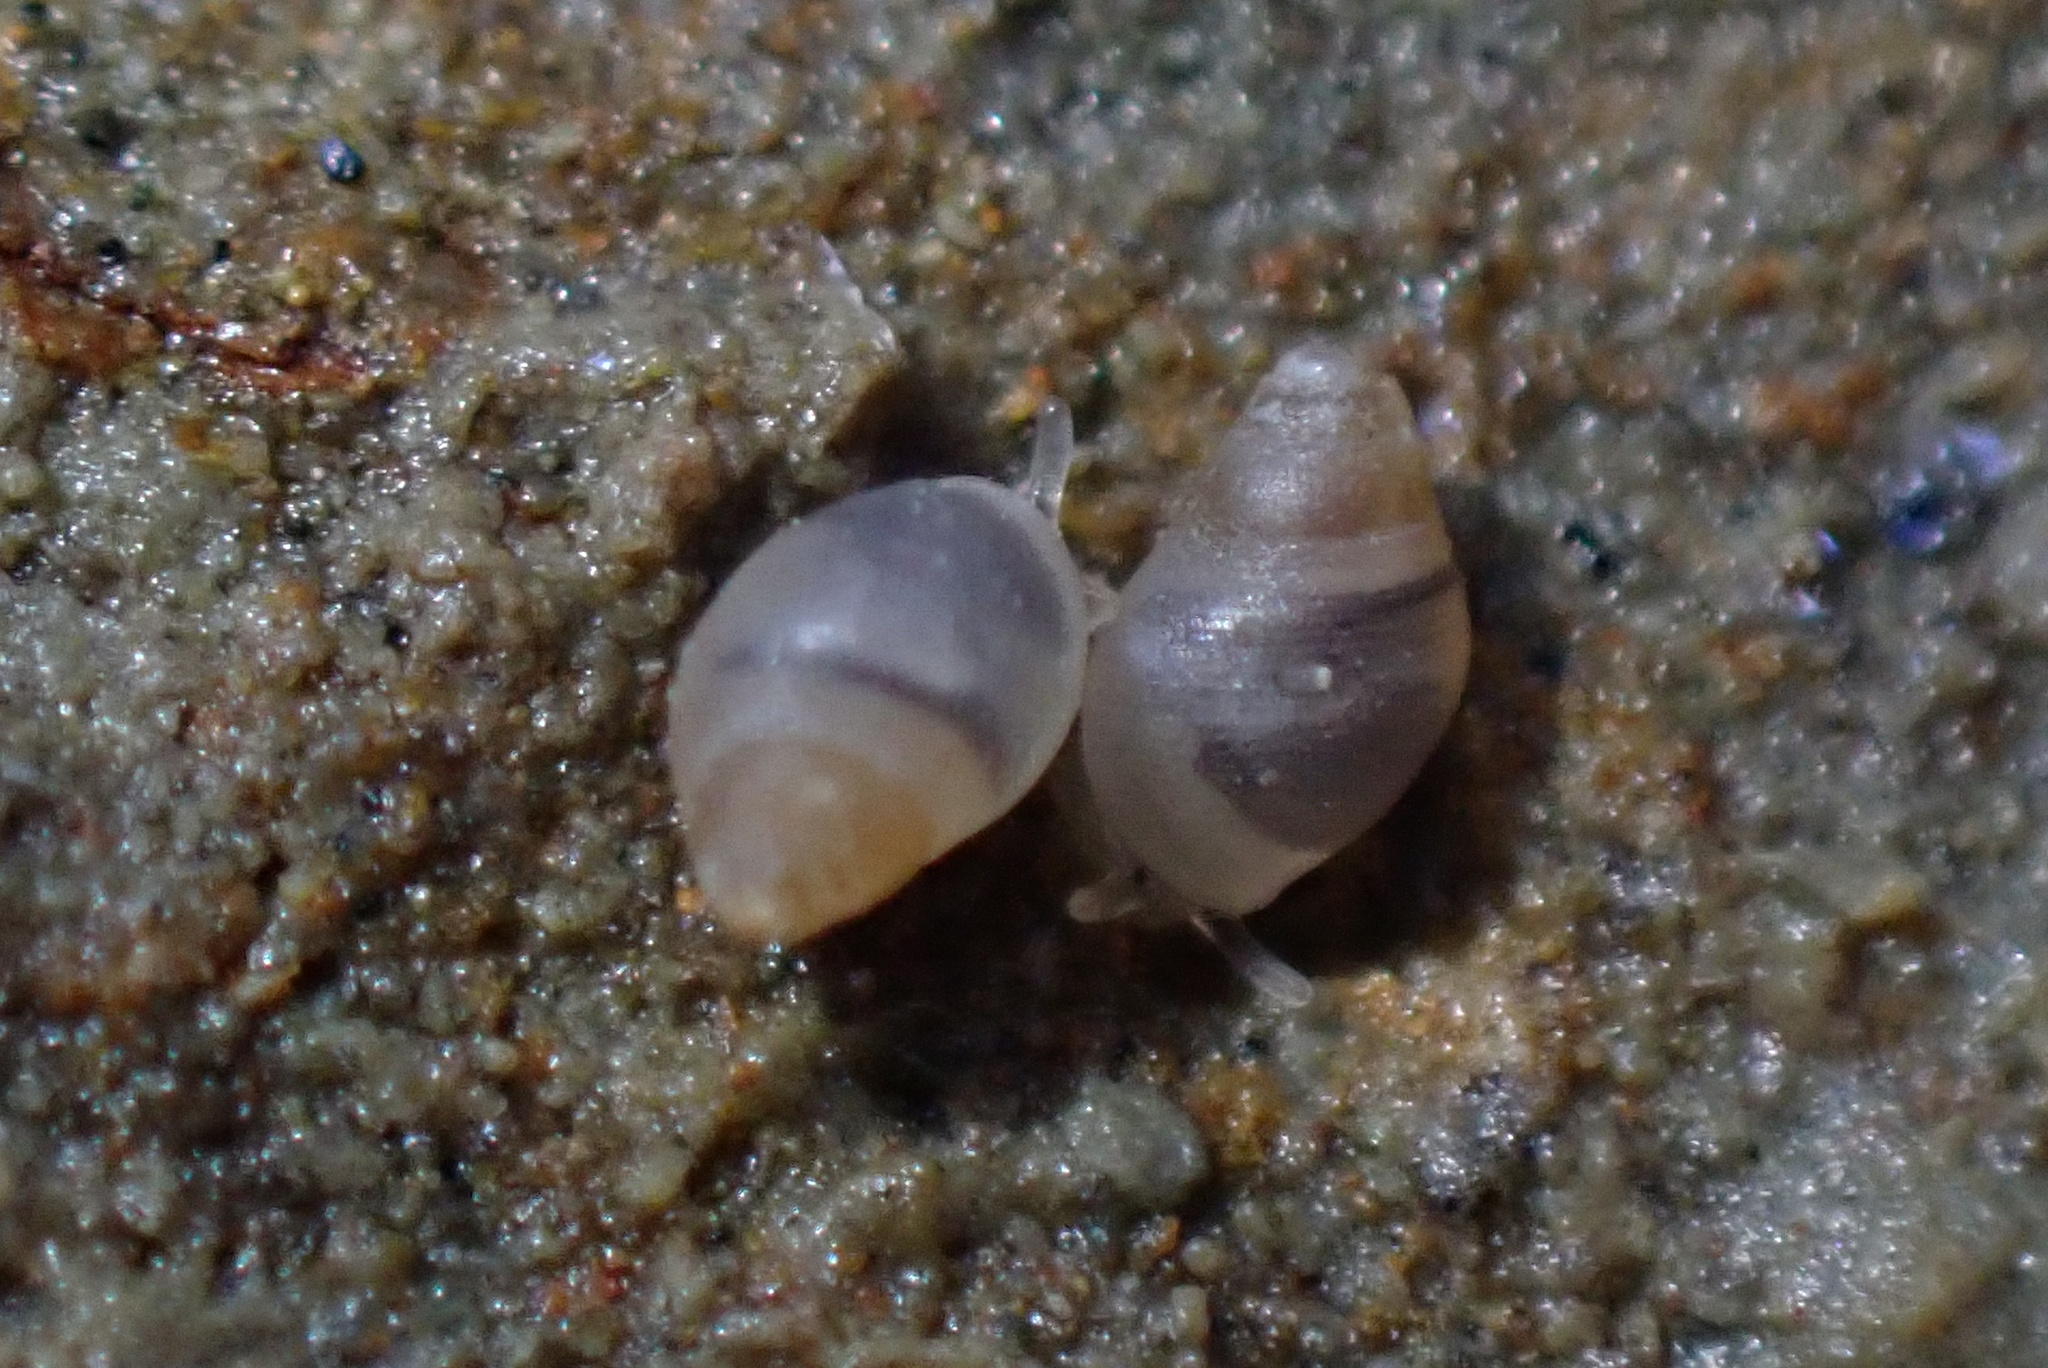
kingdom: Animalia
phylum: Mollusca
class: Gastropoda
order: Ellobiida
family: Ellobiidae
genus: Leuconopsis
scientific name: Leuconopsis obsoleta
